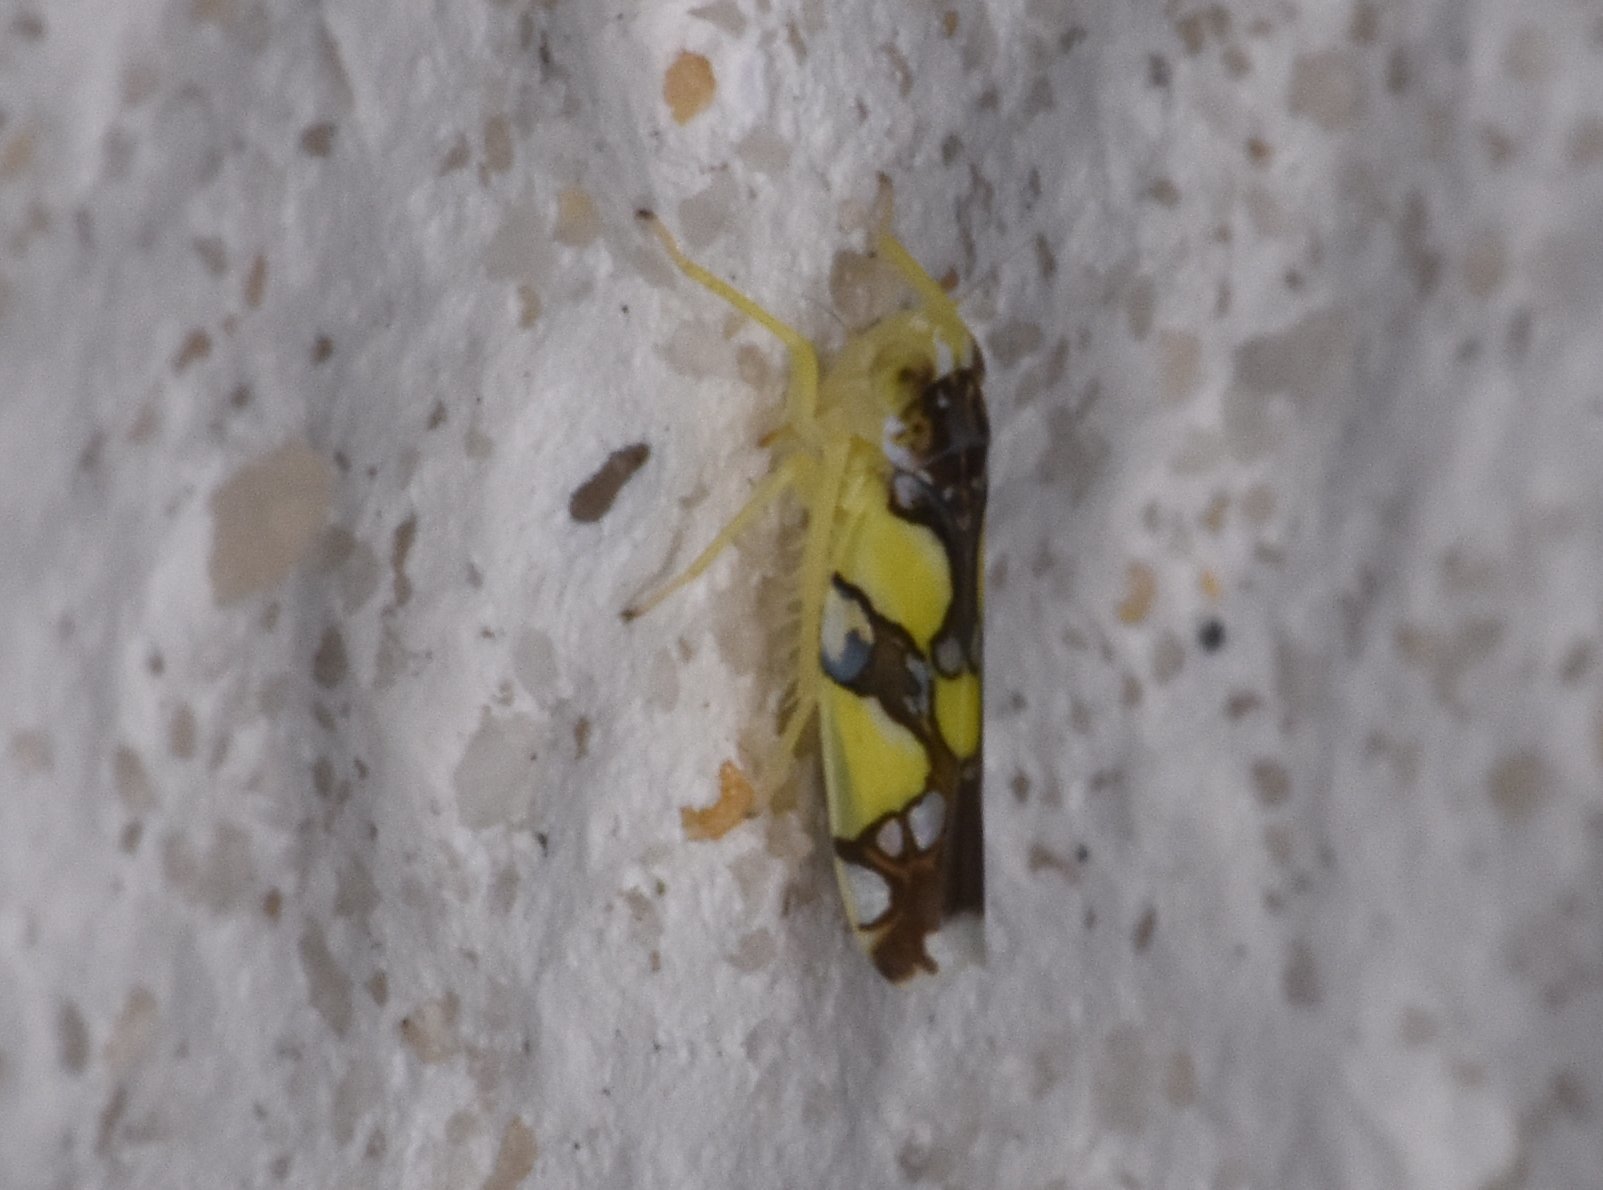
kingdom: Animalia
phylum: Arthropoda
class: Insecta
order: Hemiptera
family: Cicadellidae
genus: Protalebrella
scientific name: Protalebrella brasiliensis
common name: Brasilian leafhopper
